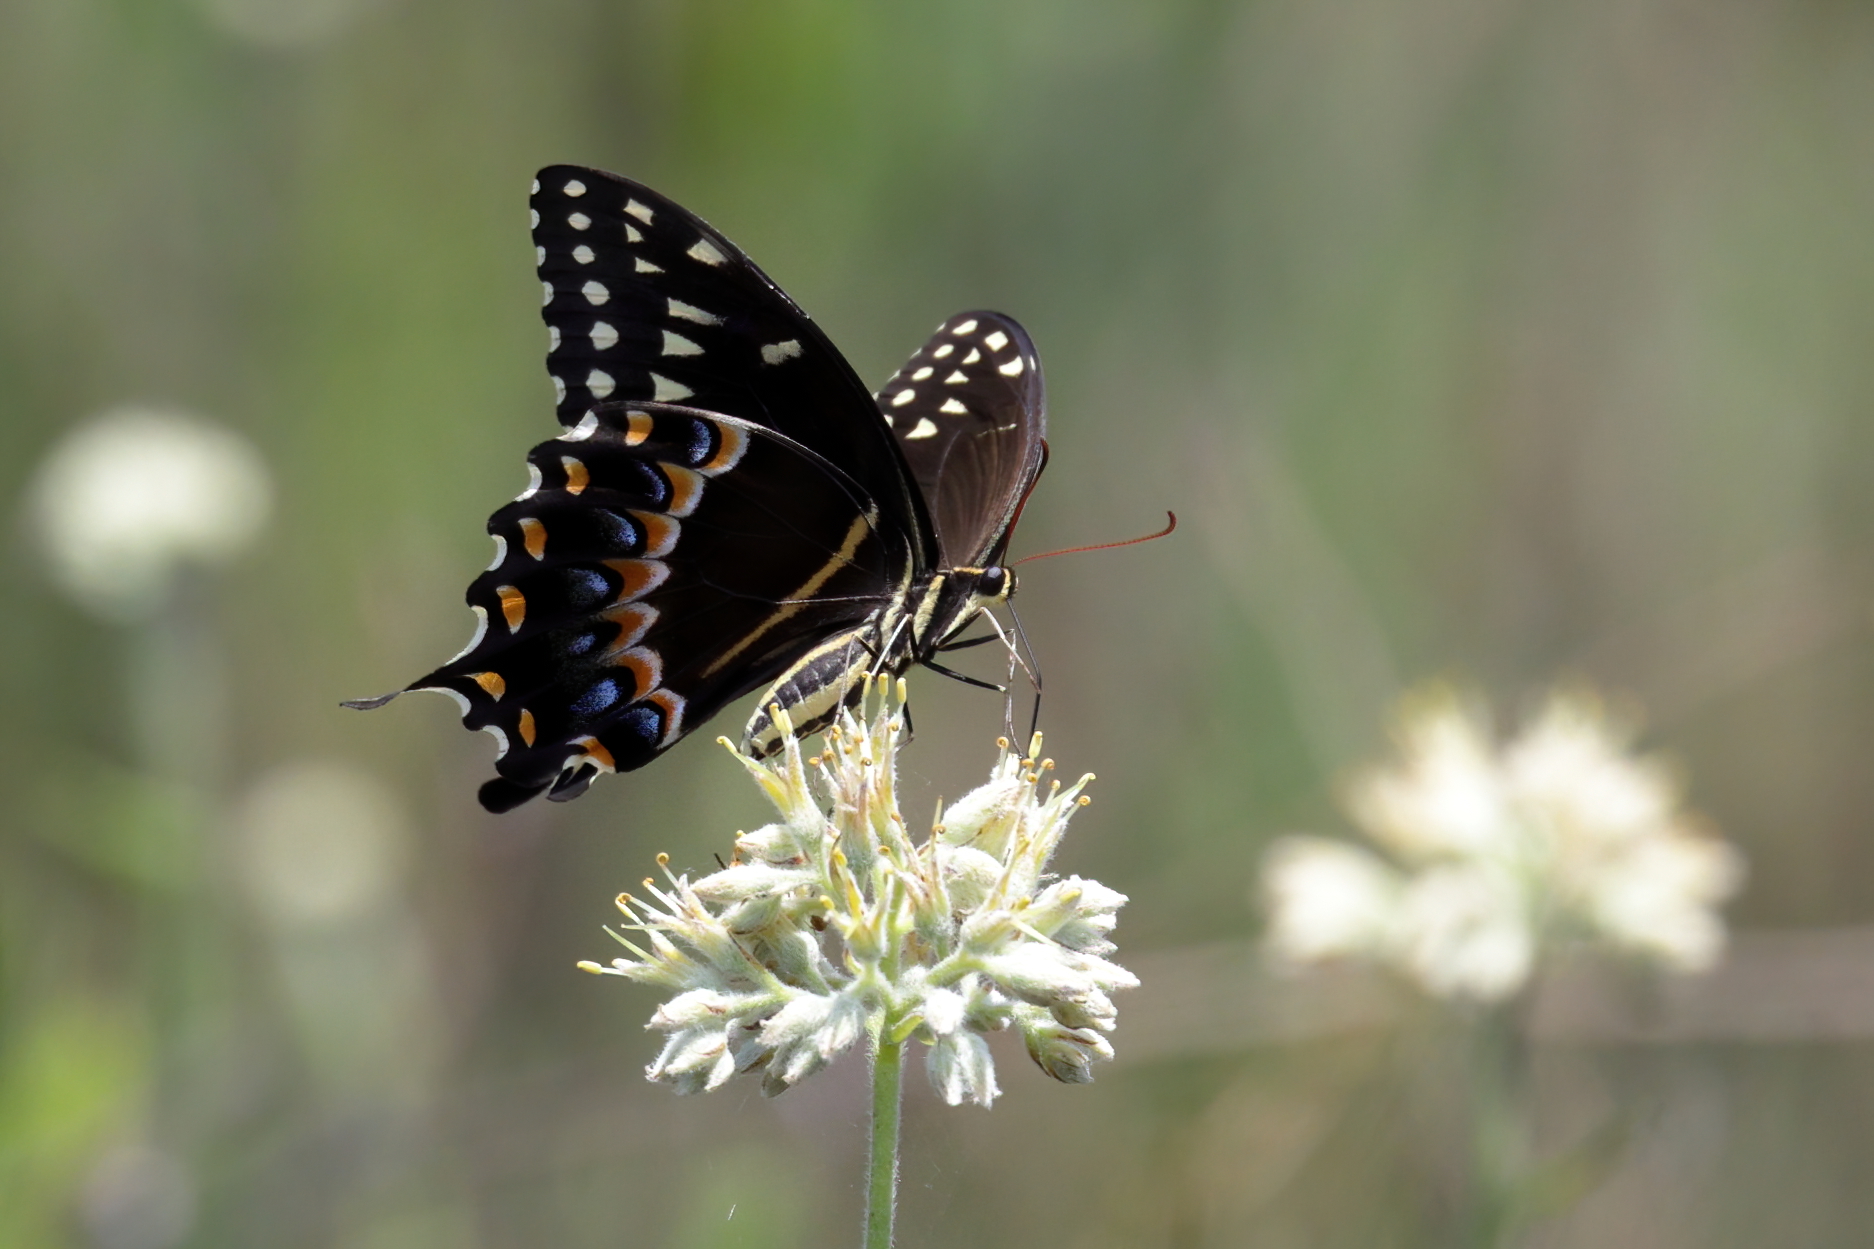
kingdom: Animalia
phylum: Arthropoda
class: Insecta
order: Lepidoptera
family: Papilionidae
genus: Papilio
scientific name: Papilio palamedes
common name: Palamedes swallowtail
